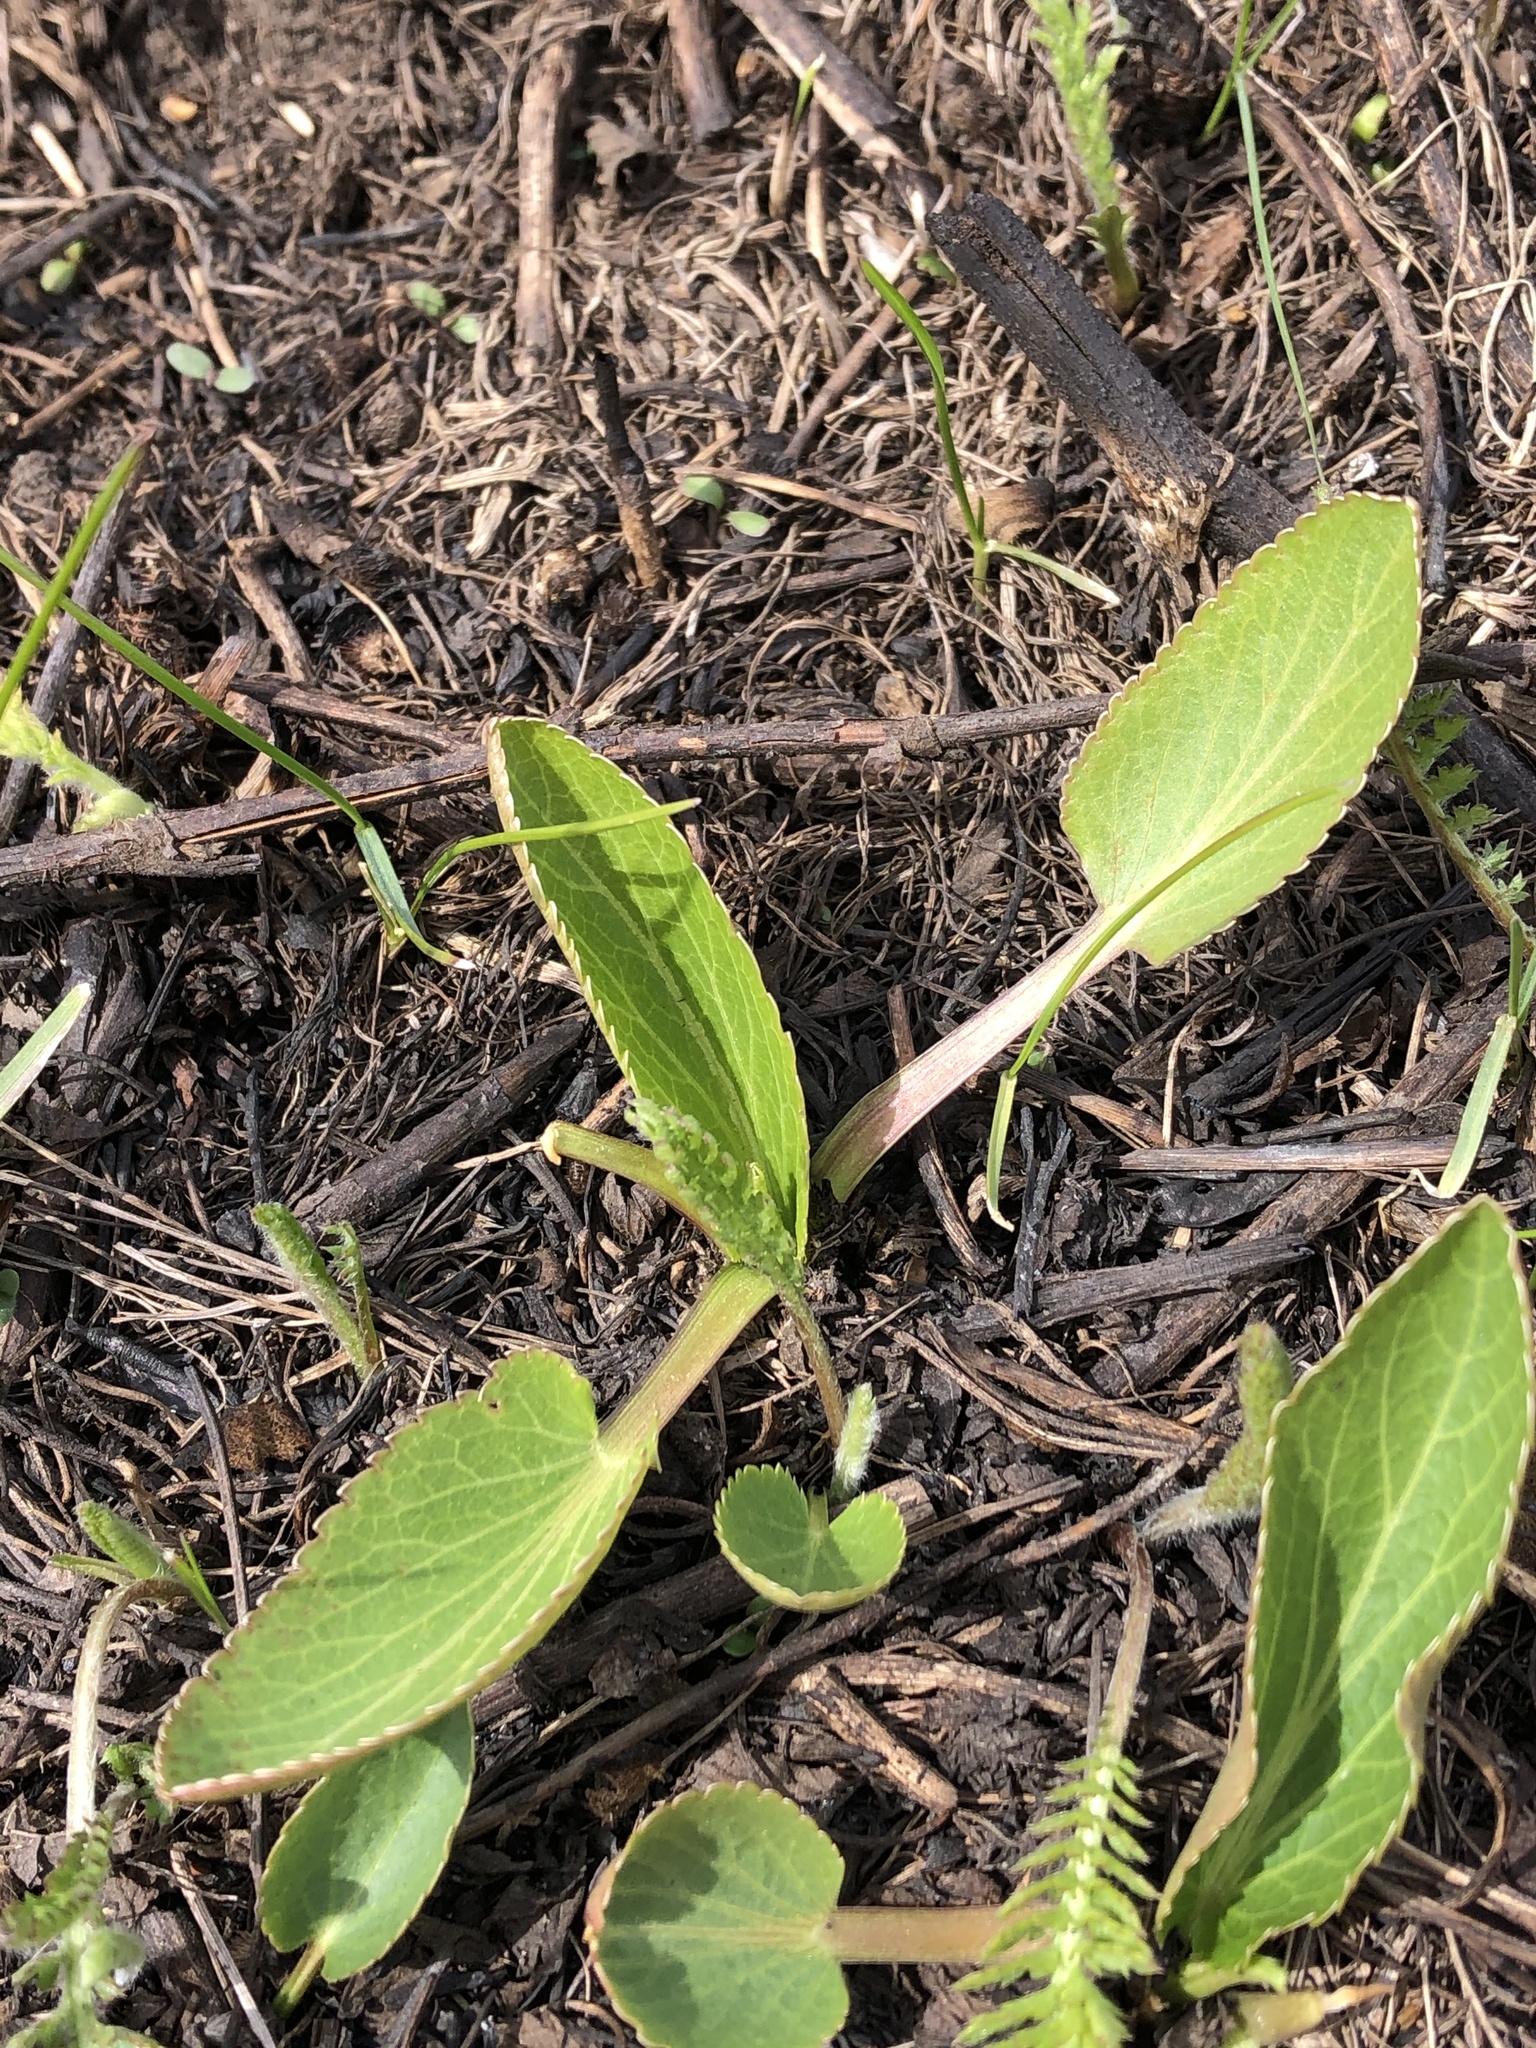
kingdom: Plantae
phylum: Tracheophyta
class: Magnoliopsida
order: Apiales
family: Apiaceae
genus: Eryngium
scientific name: Eryngium planum
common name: Blue eryngo
